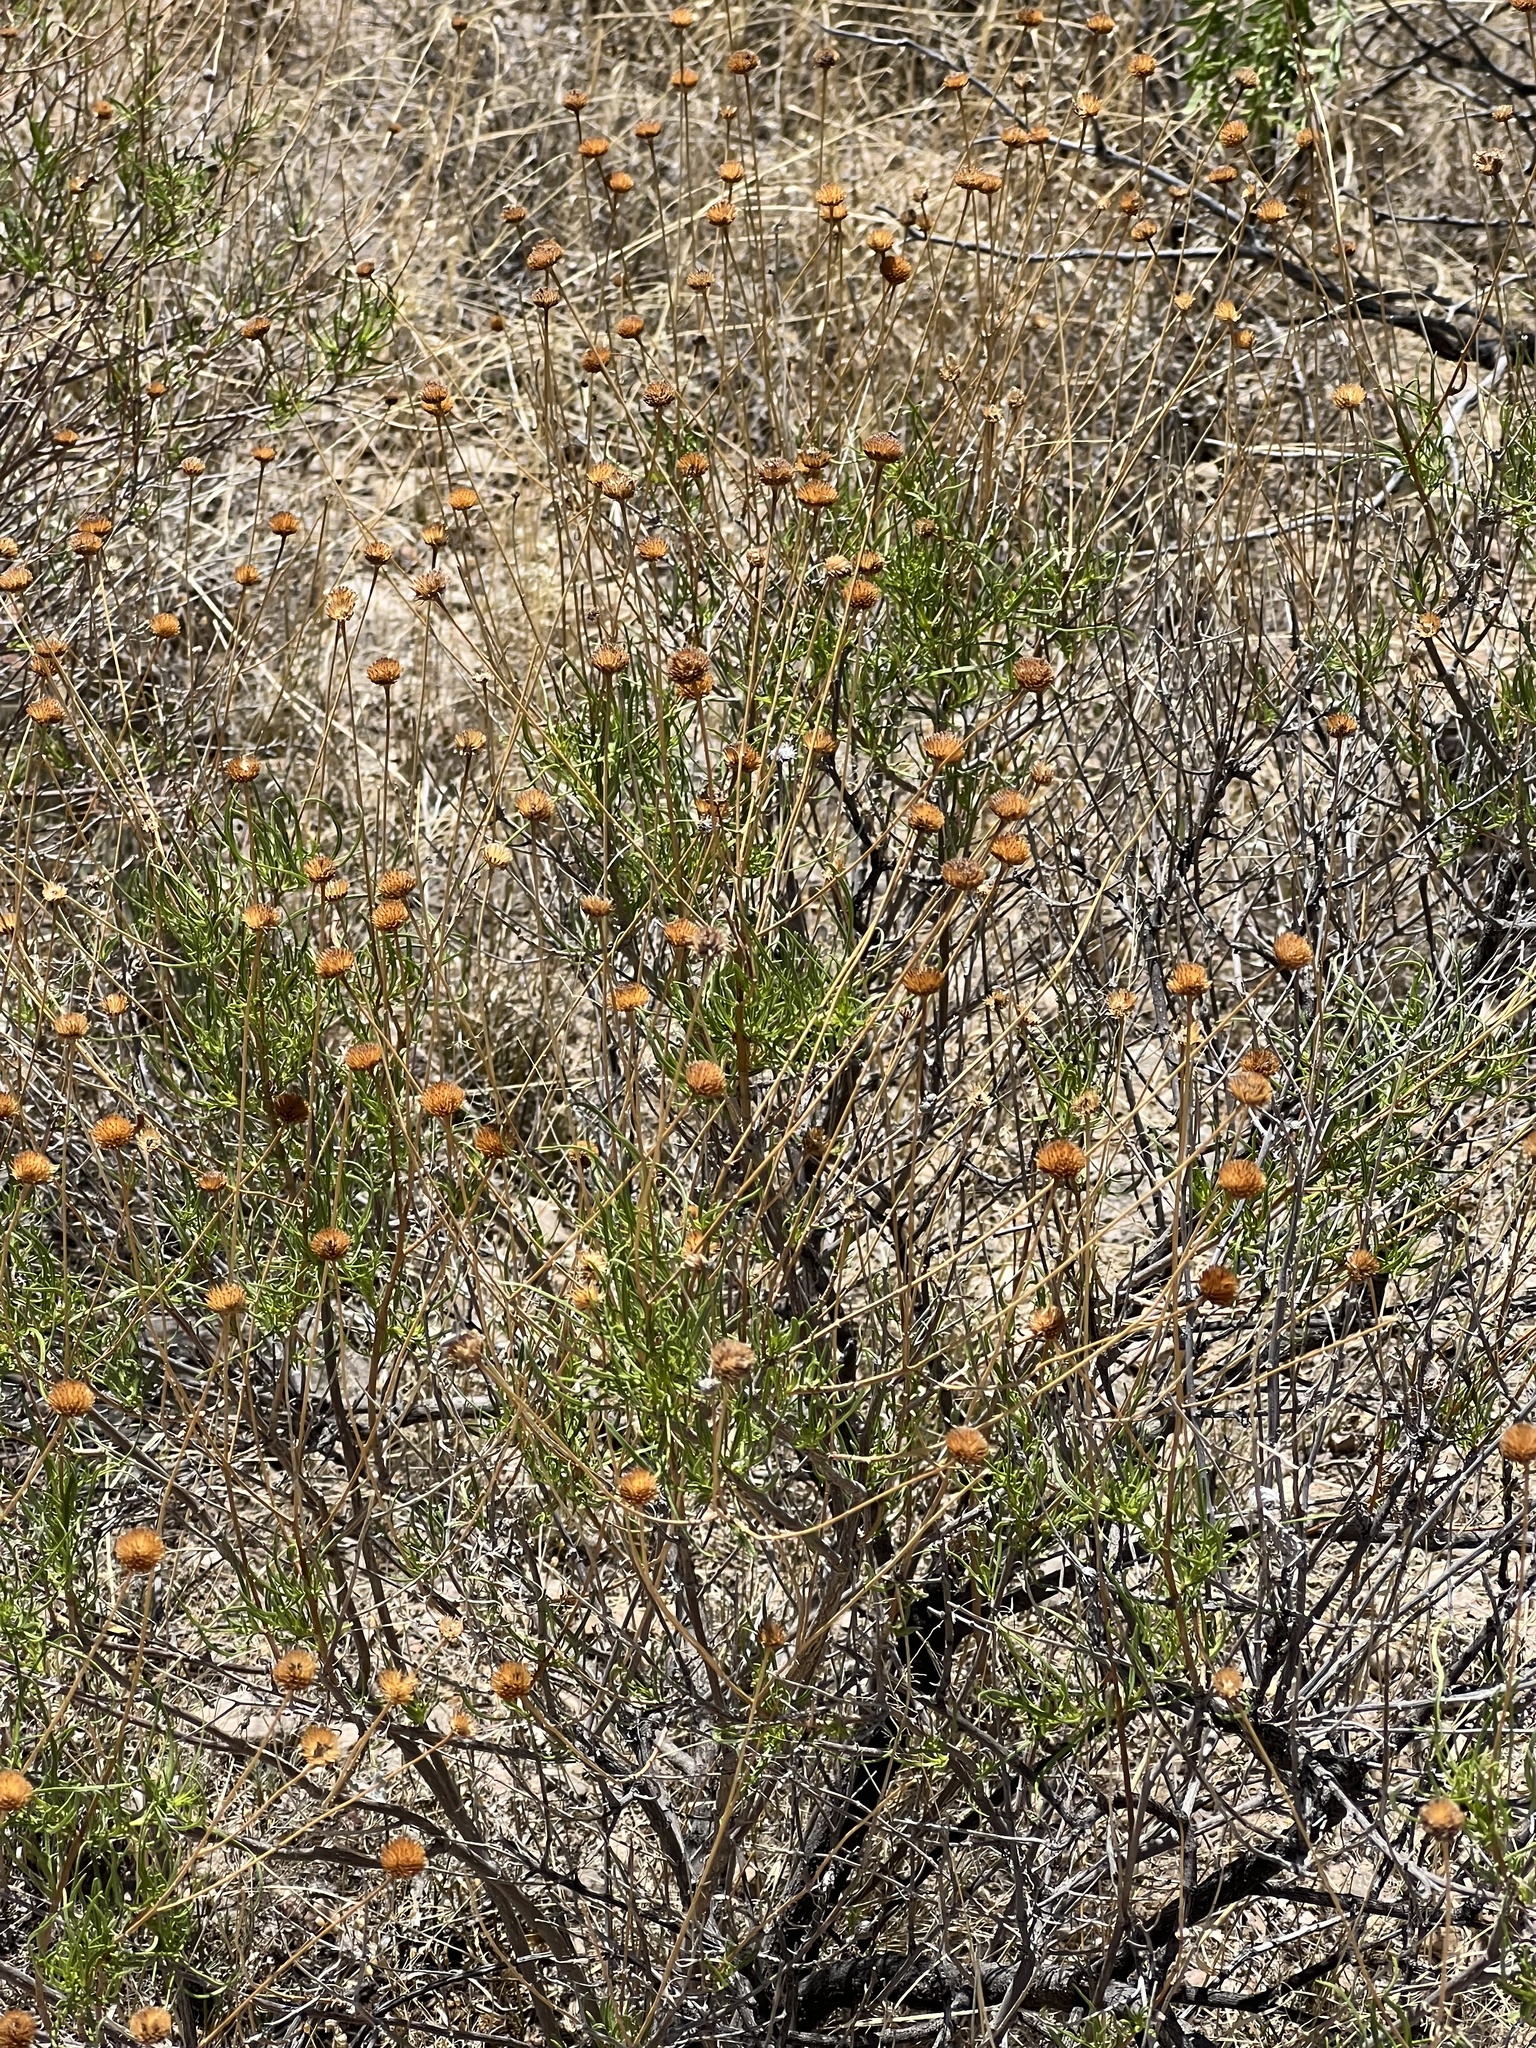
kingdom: Plantae
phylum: Tracheophyta
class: Magnoliopsida
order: Asterales
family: Asteraceae
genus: Sidneya
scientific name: Sidneya tenuifolia
